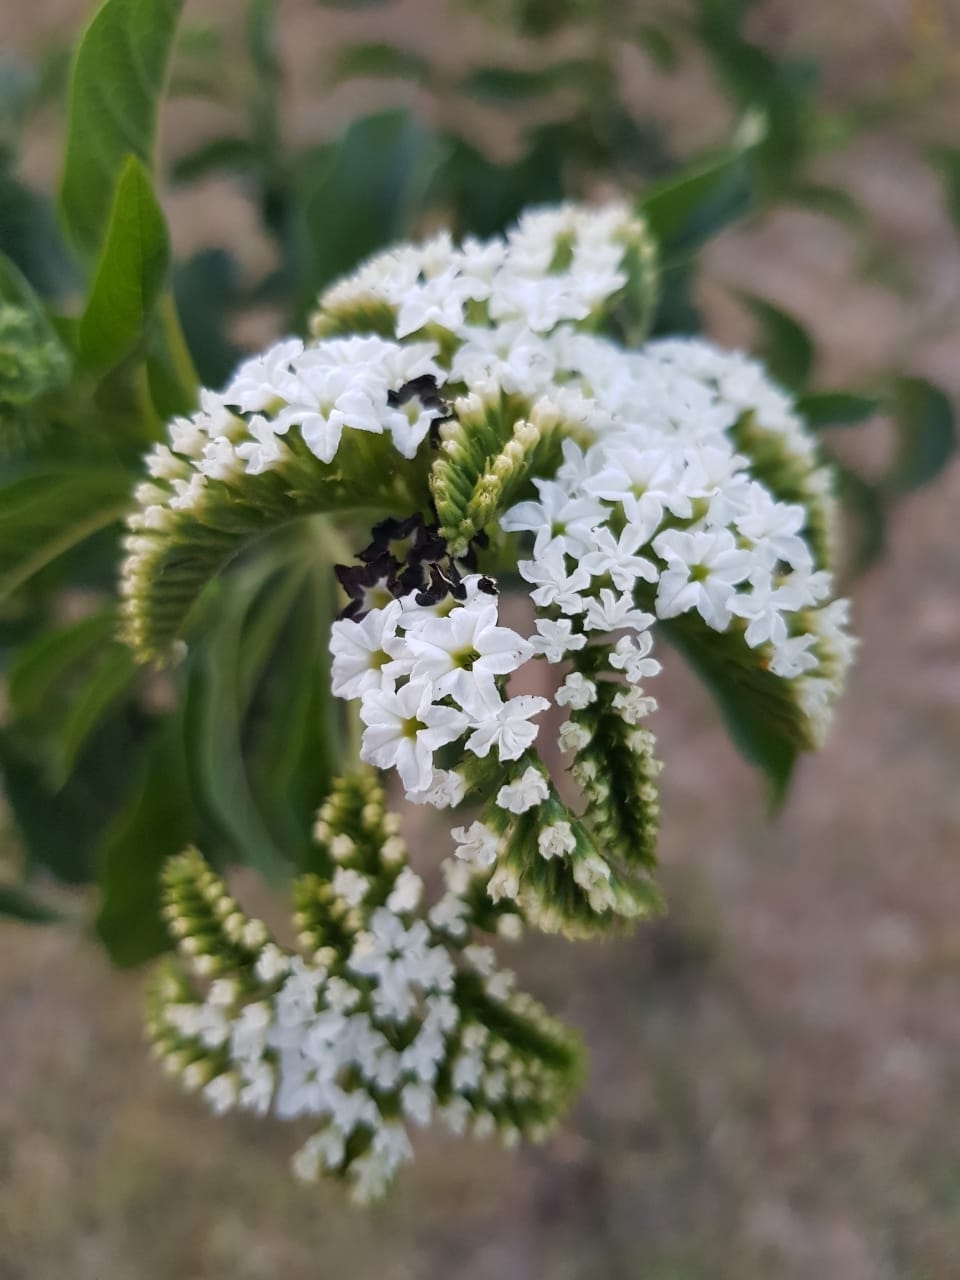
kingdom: Plantae
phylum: Tracheophyta
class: Magnoliopsida
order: Boraginales
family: Heliotropiaceae
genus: Tournefortia
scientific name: Tournefortia mutabilis
